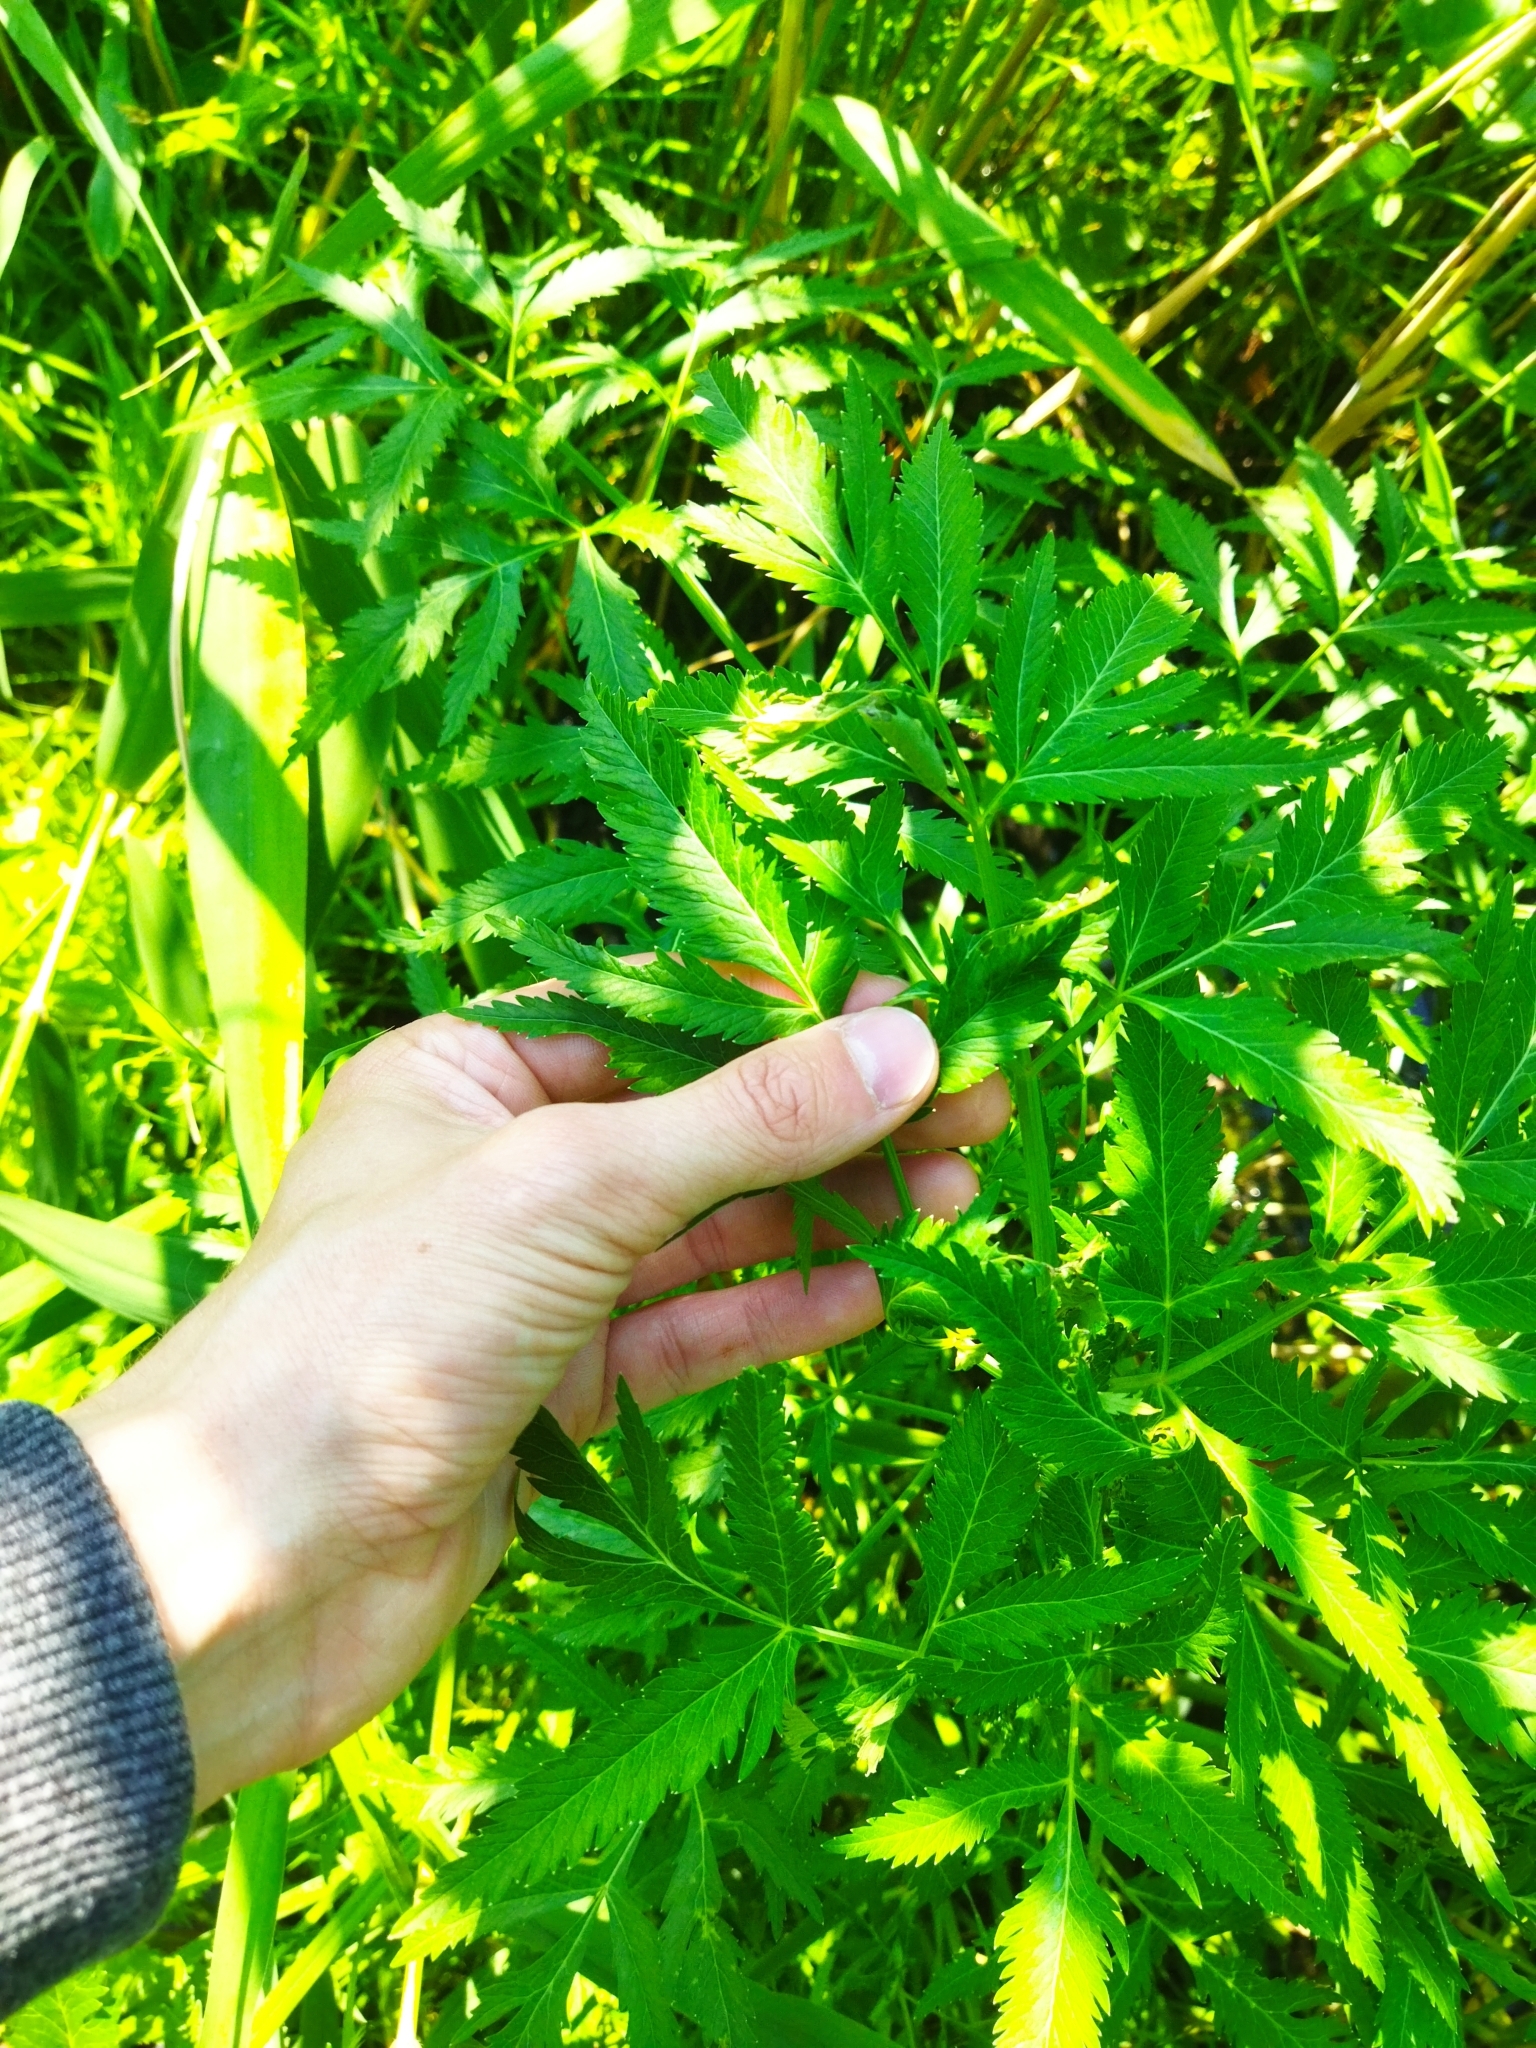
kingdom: Plantae
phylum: Tracheophyta
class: Magnoliopsida
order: Apiales
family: Apiaceae
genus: Cicuta
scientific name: Cicuta virosa
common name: Cowbane
